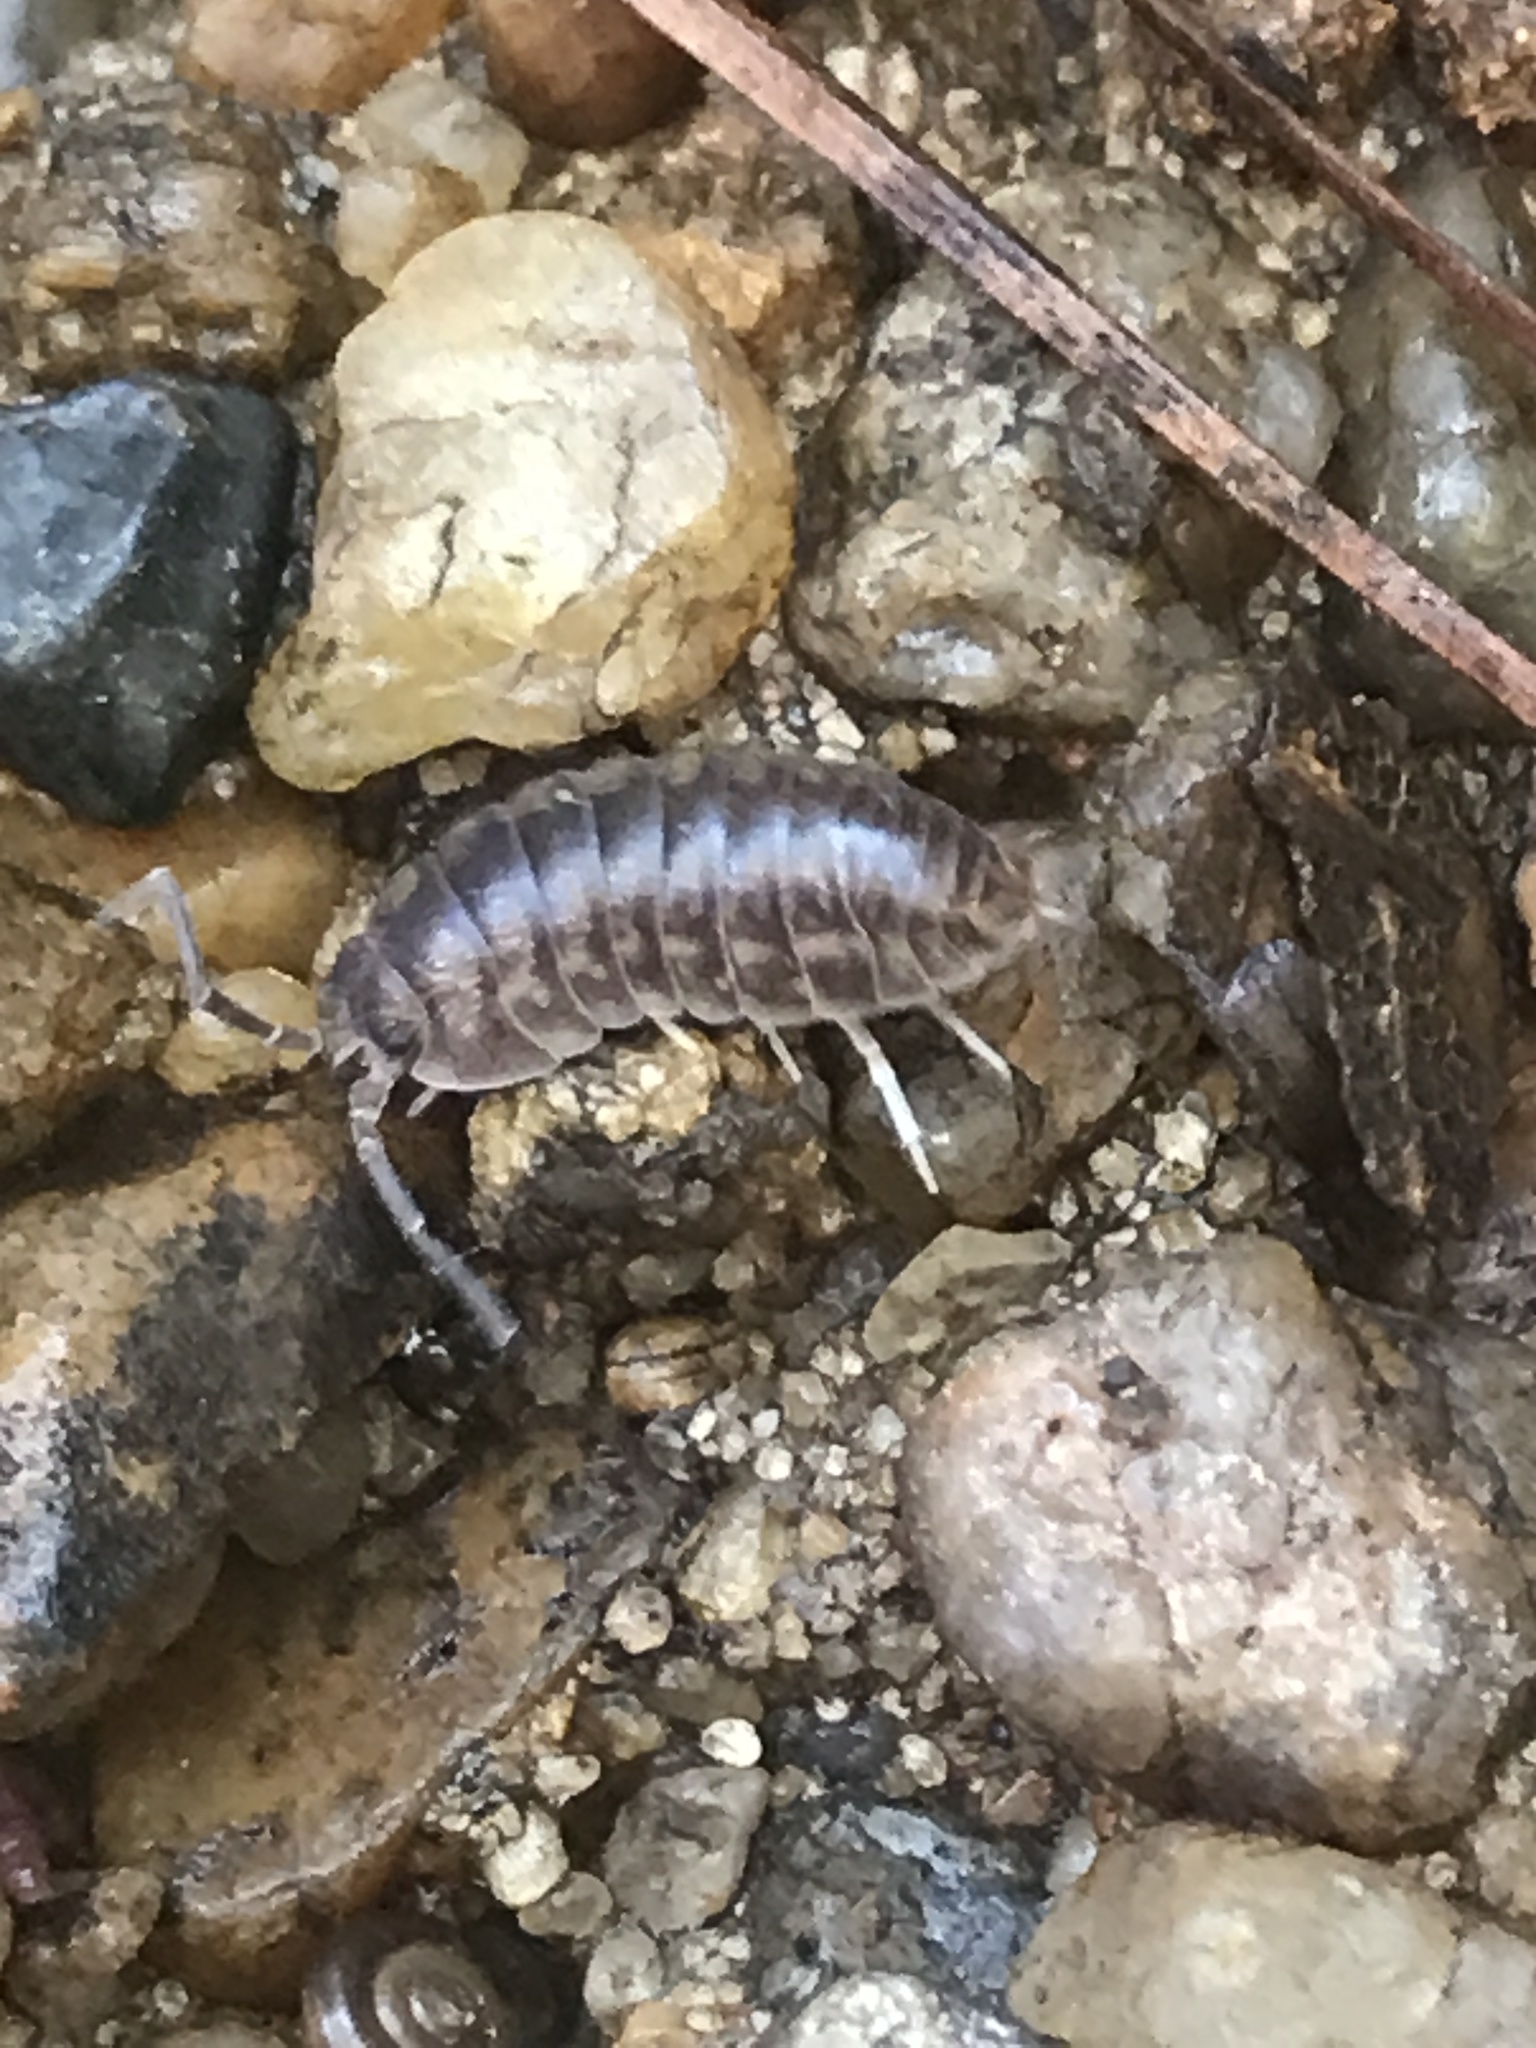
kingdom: Animalia
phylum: Arthropoda
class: Malacostraca
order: Isopoda
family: Cylisticidae
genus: Cylisticus
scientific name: Cylisticus convexus
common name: Curly woodlouse
